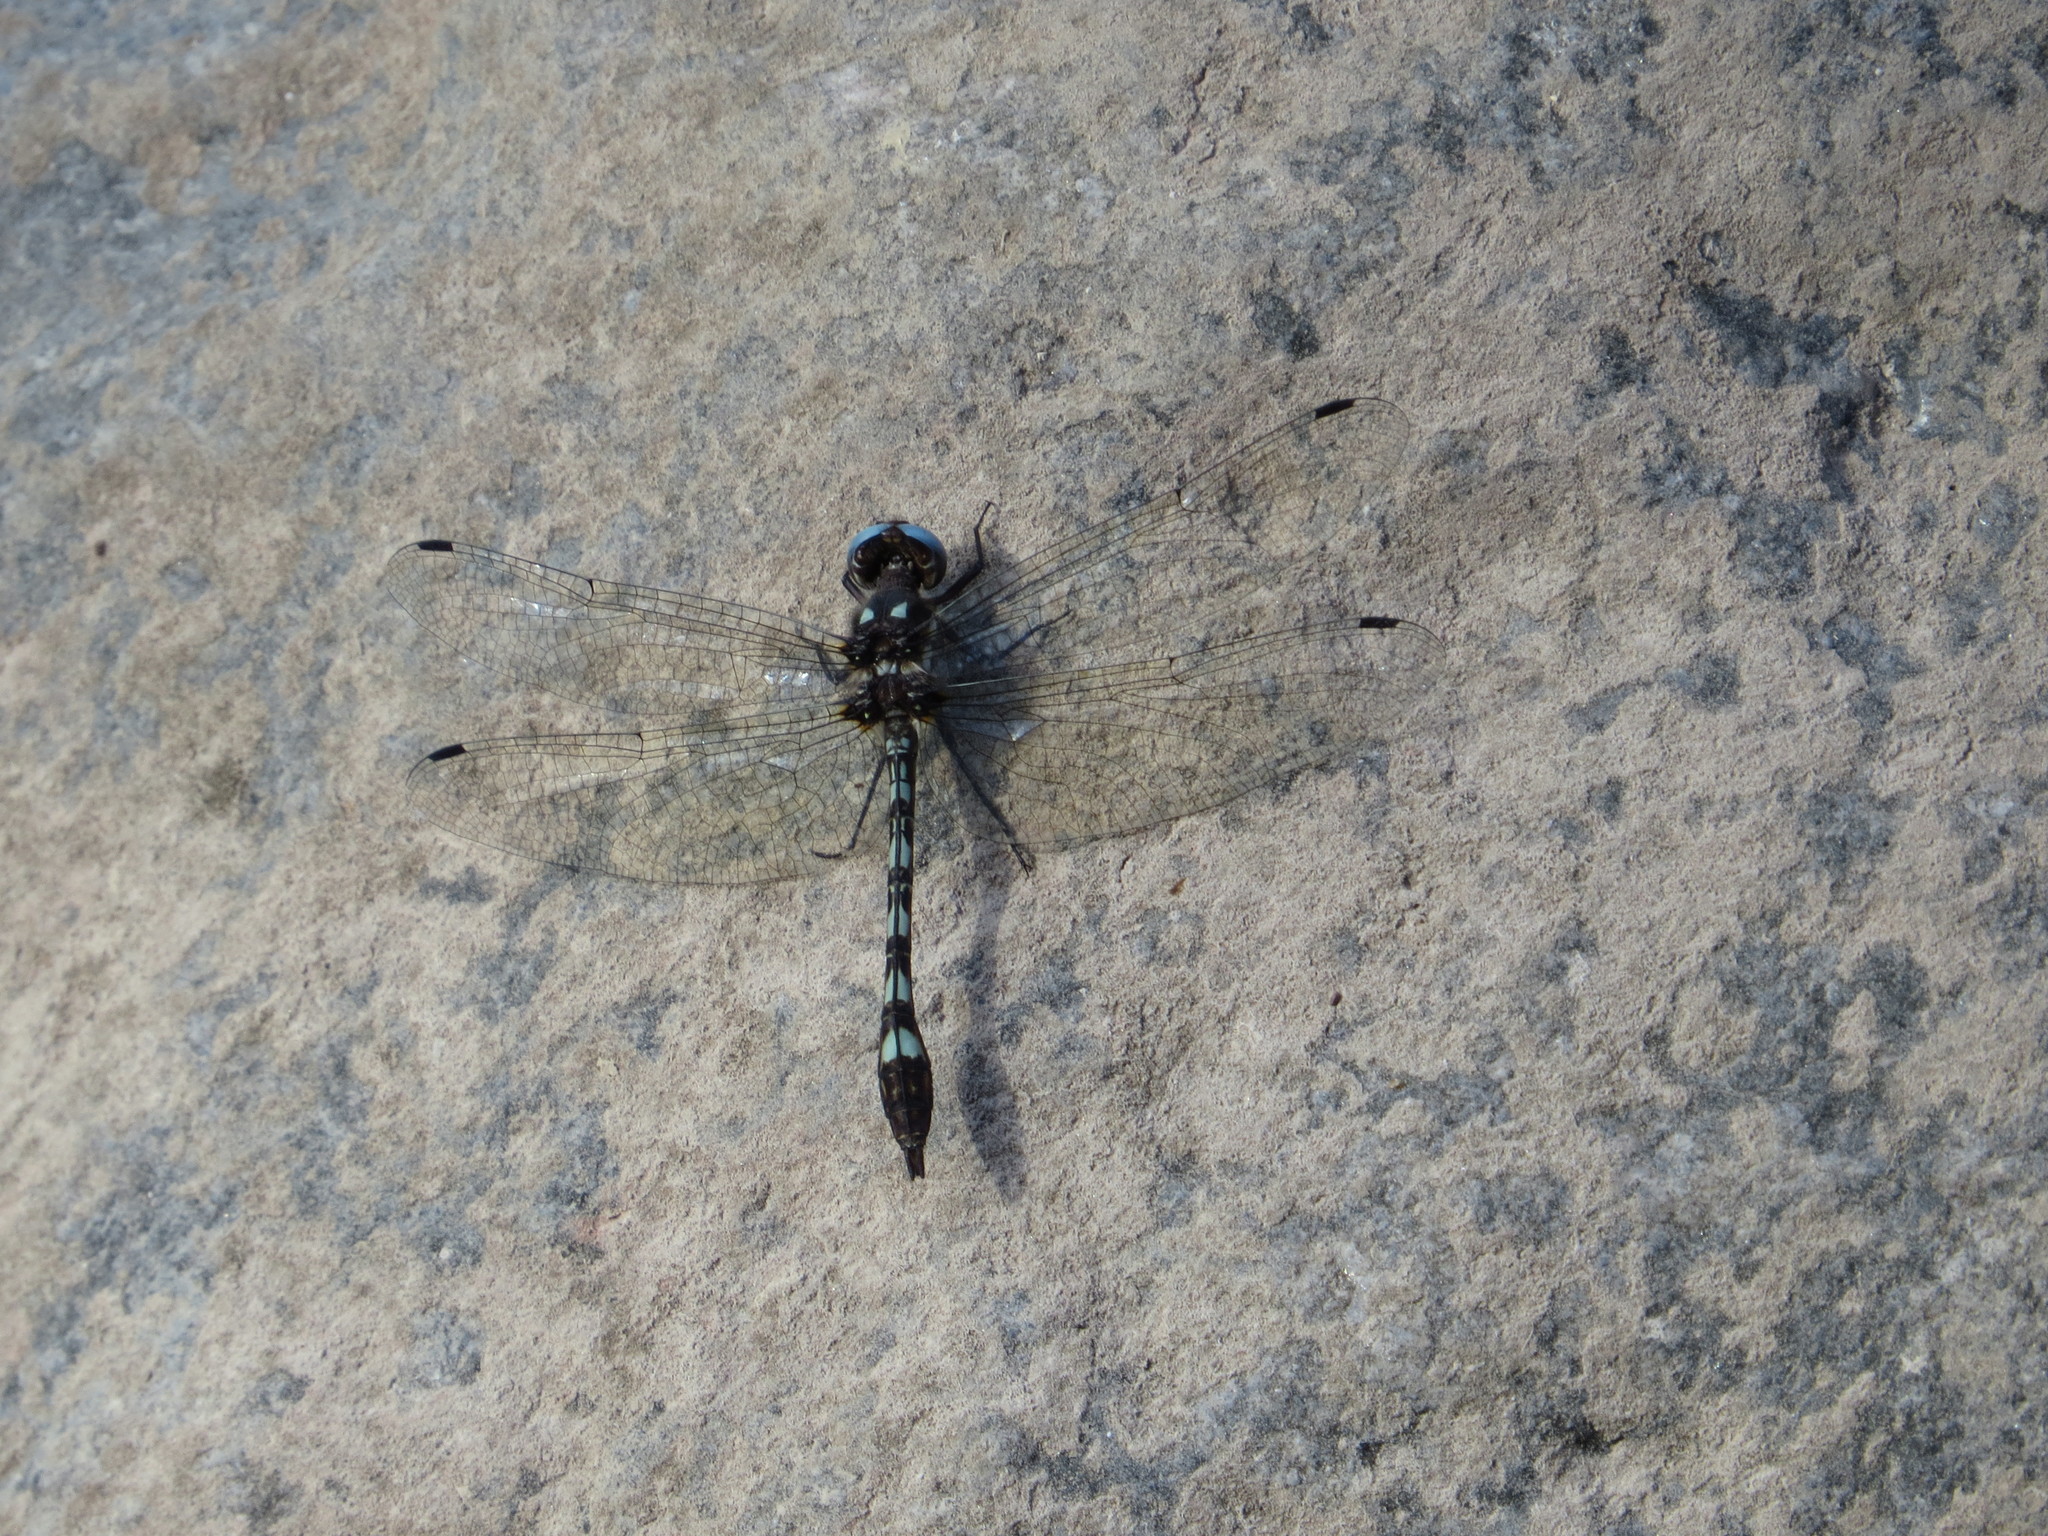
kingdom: Animalia
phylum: Arthropoda
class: Insecta
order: Odonata
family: Libellulidae
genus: Macrothemis
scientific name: Macrothemis imitans
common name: Ivory-striped sylph
